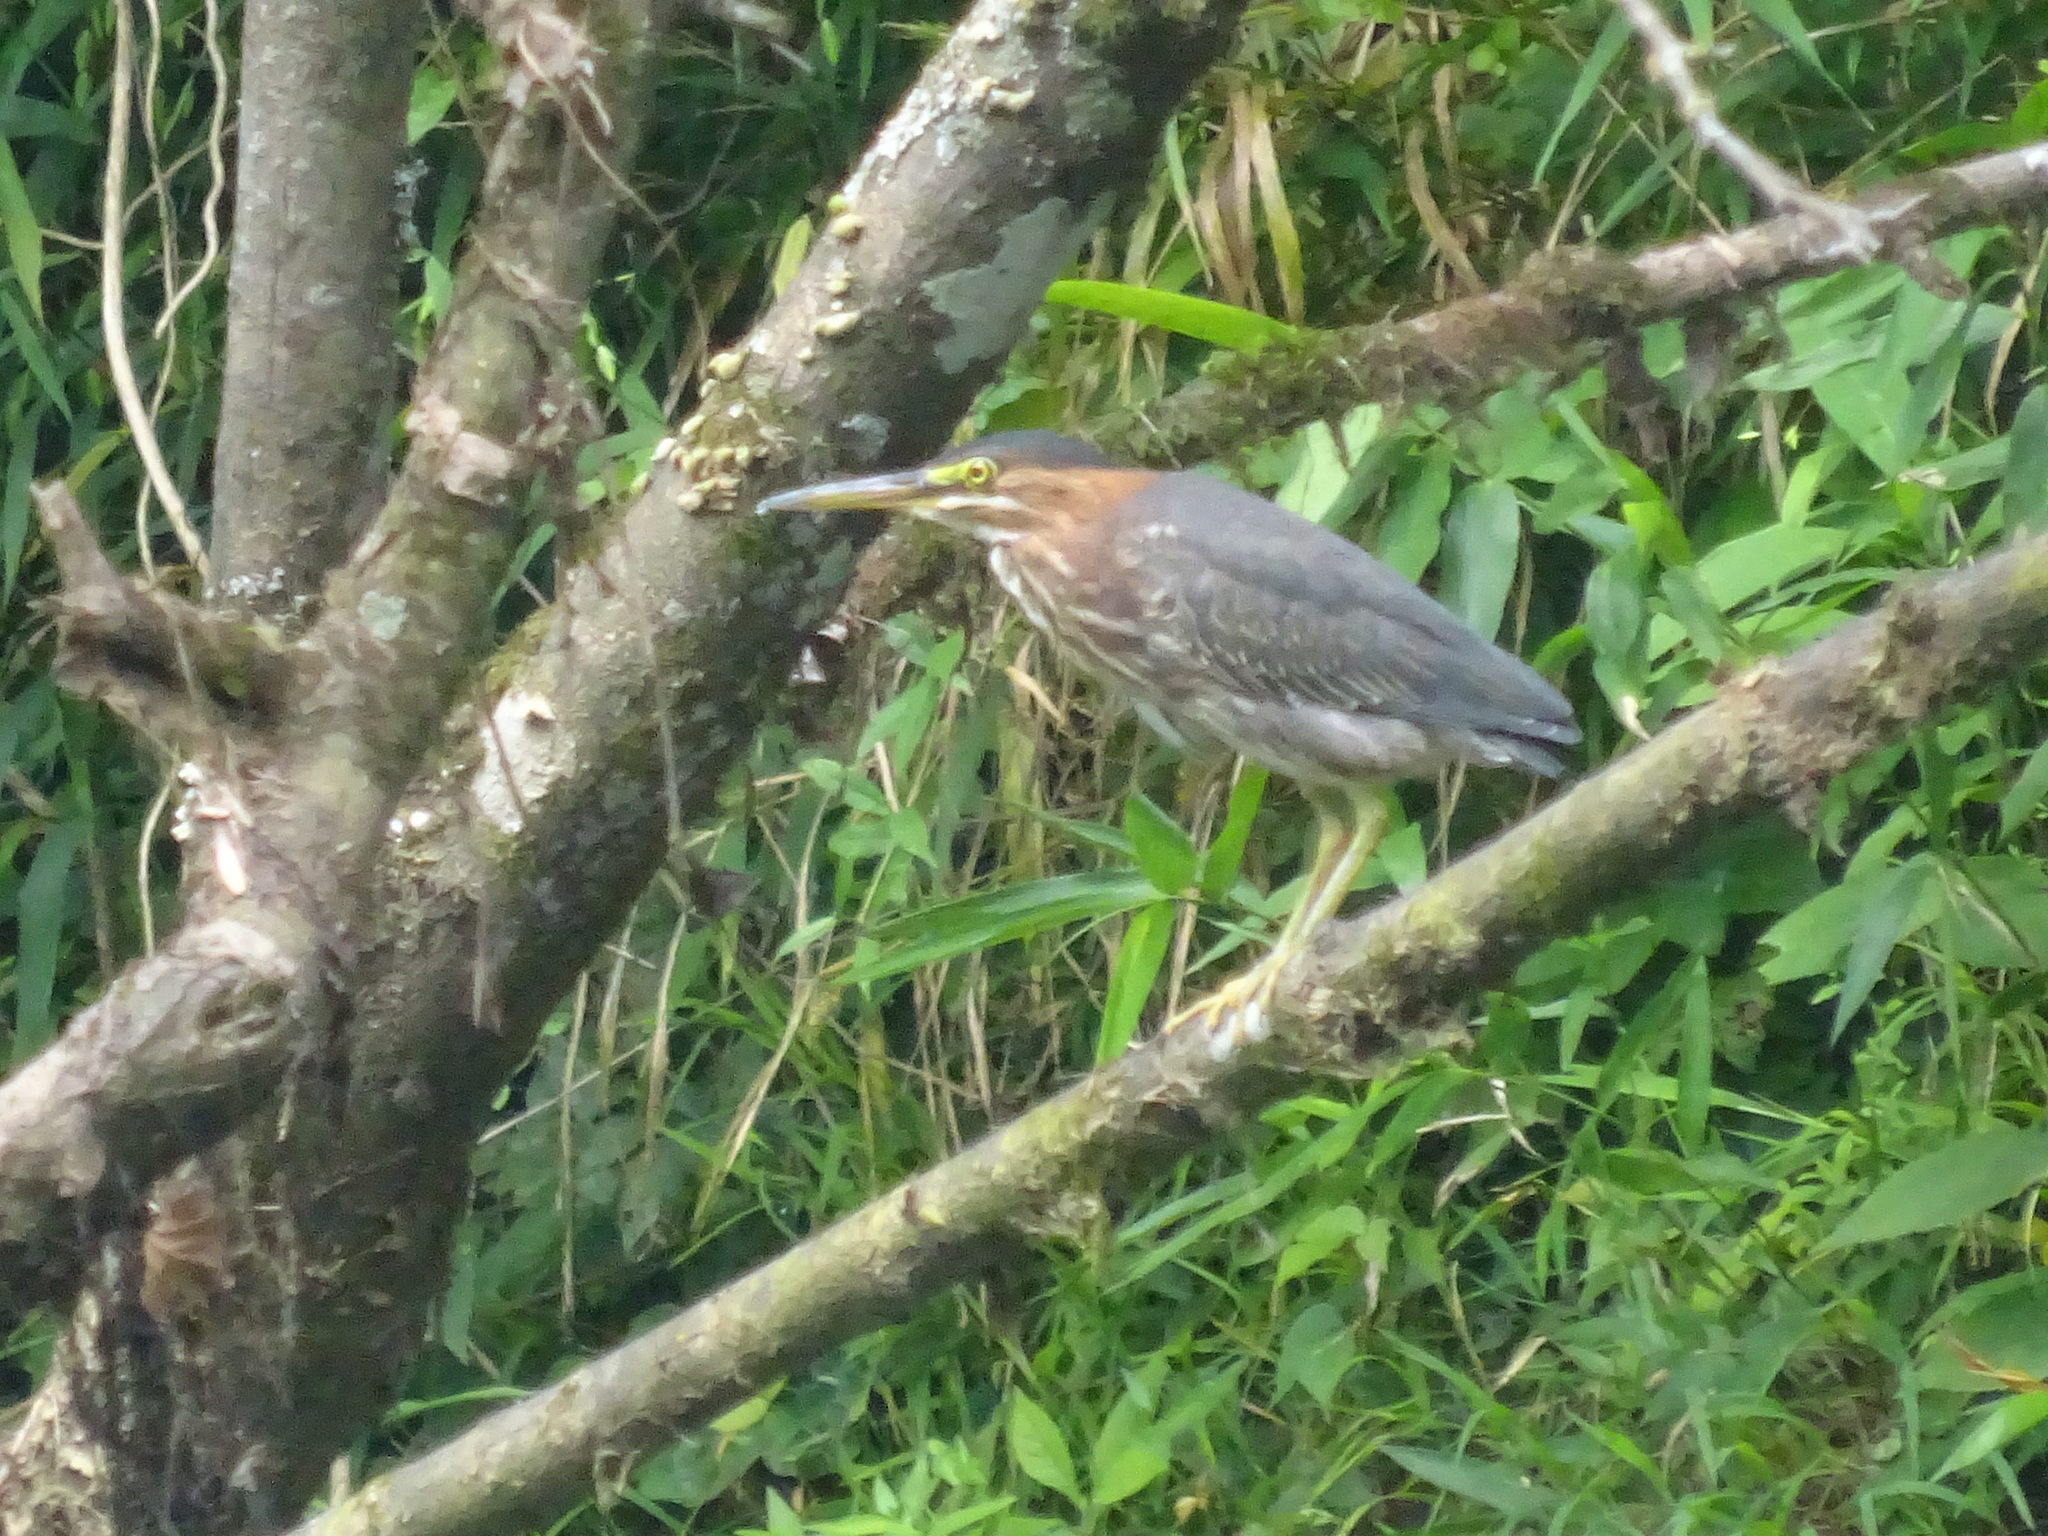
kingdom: Animalia
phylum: Chordata
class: Aves
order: Pelecaniformes
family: Ardeidae
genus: Butorides
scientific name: Butorides virescens
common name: Green heron
